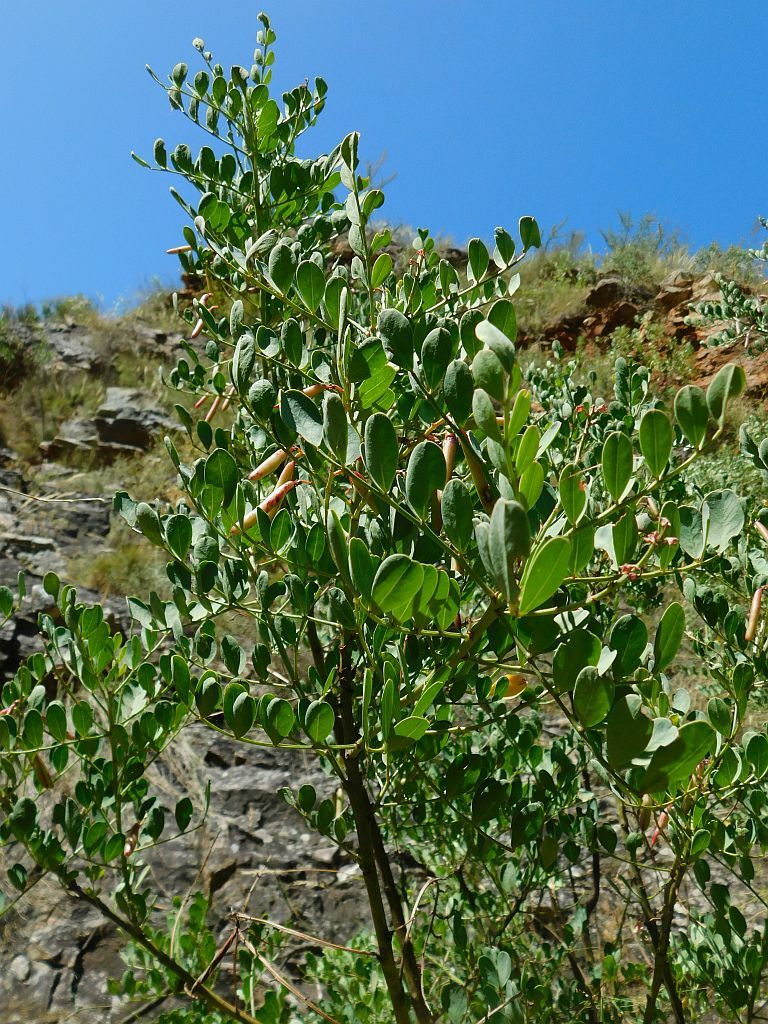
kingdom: Plantae
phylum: Tracheophyta
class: Magnoliopsida
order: Fabales
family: Fabaceae
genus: Indigofera
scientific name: Indigofera frutescens
